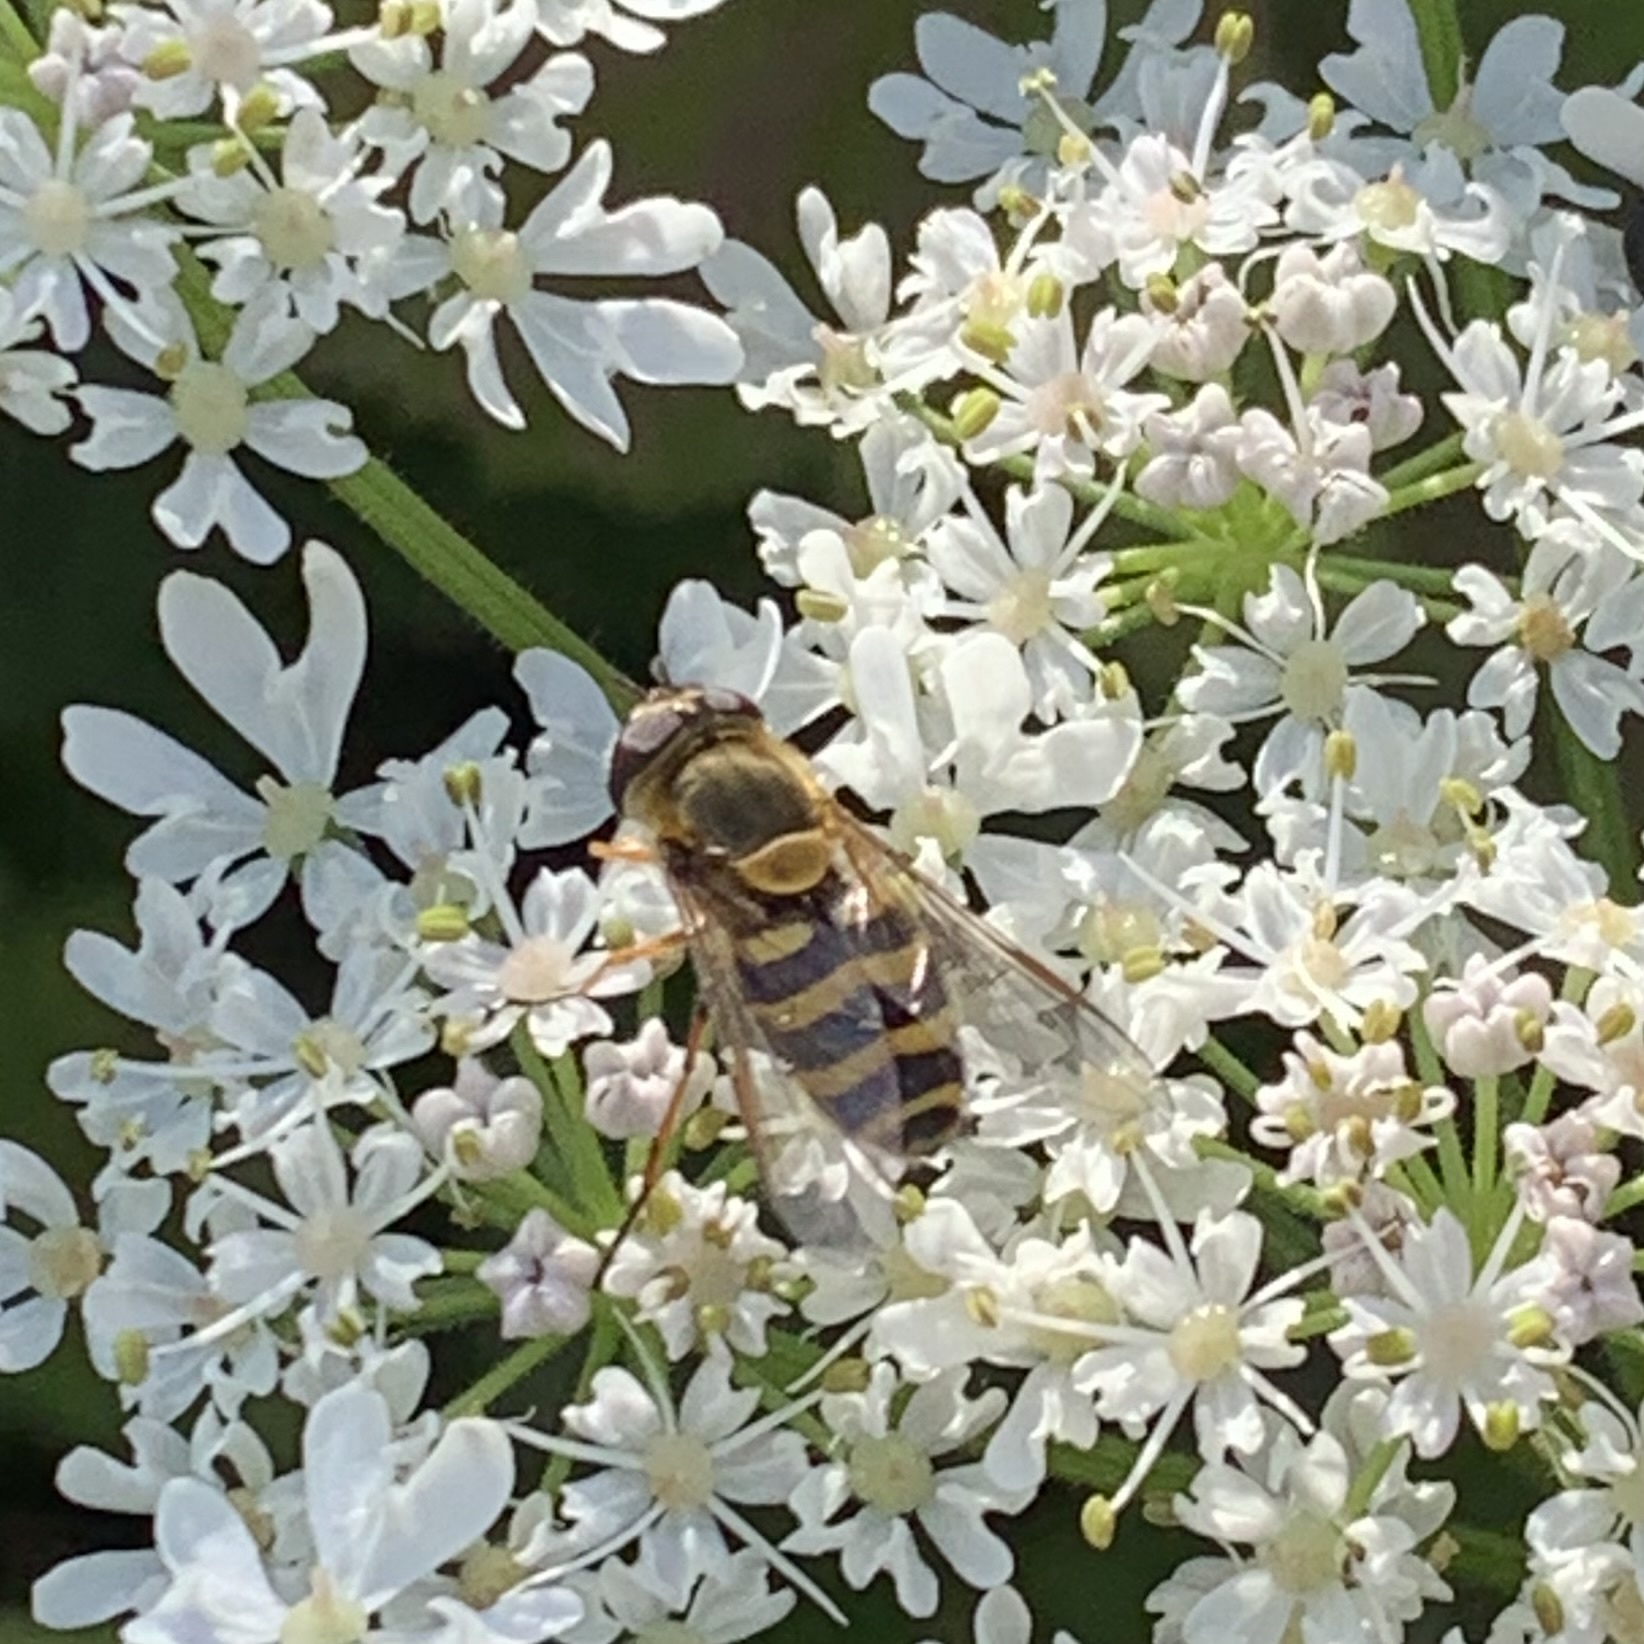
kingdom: Animalia
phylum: Arthropoda
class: Insecta
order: Diptera
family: Syrphidae
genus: Syrphus
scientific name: Syrphus
